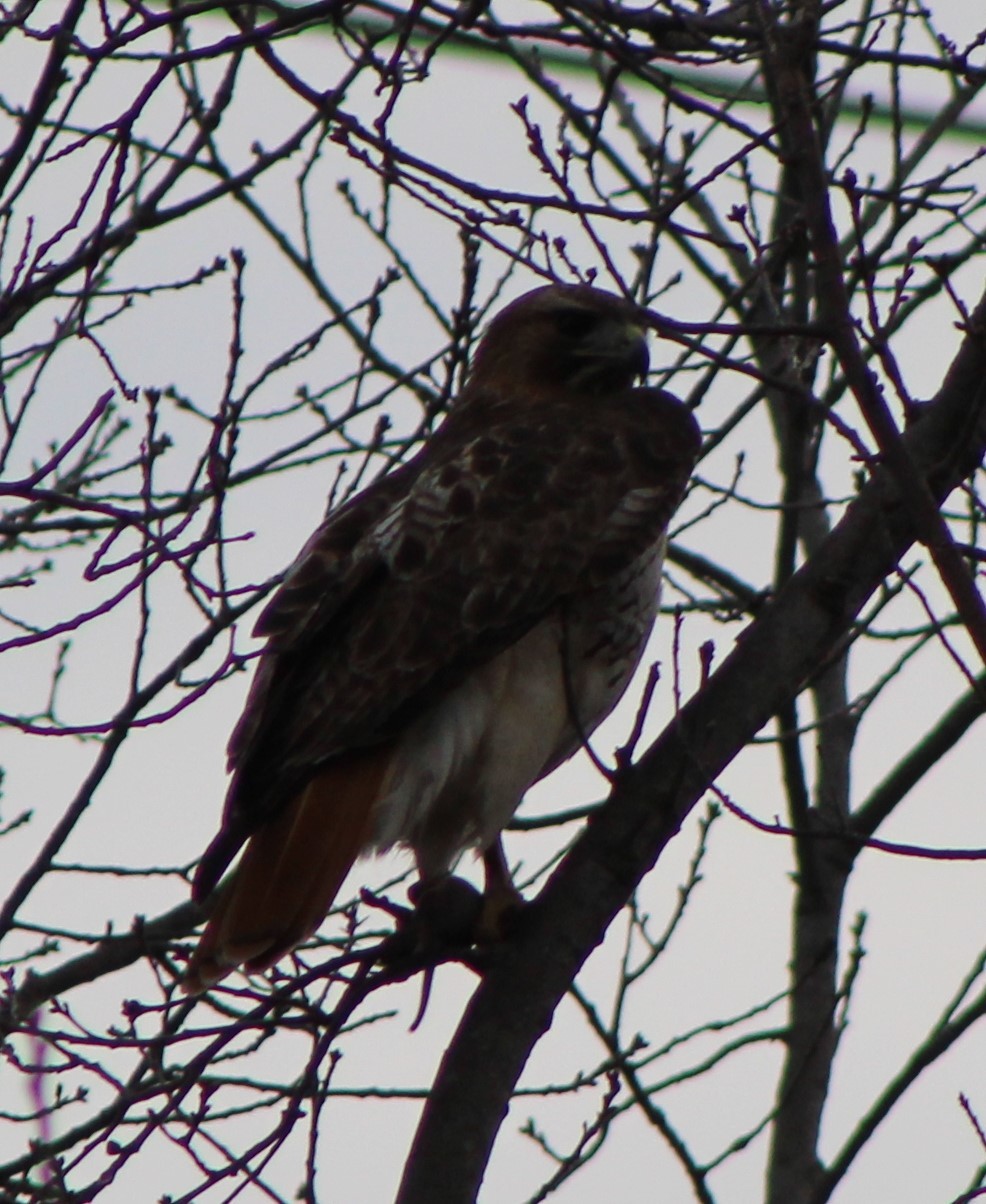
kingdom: Animalia
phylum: Chordata
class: Aves
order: Accipitriformes
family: Accipitridae
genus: Buteo
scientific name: Buteo jamaicensis
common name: Red-tailed hawk
